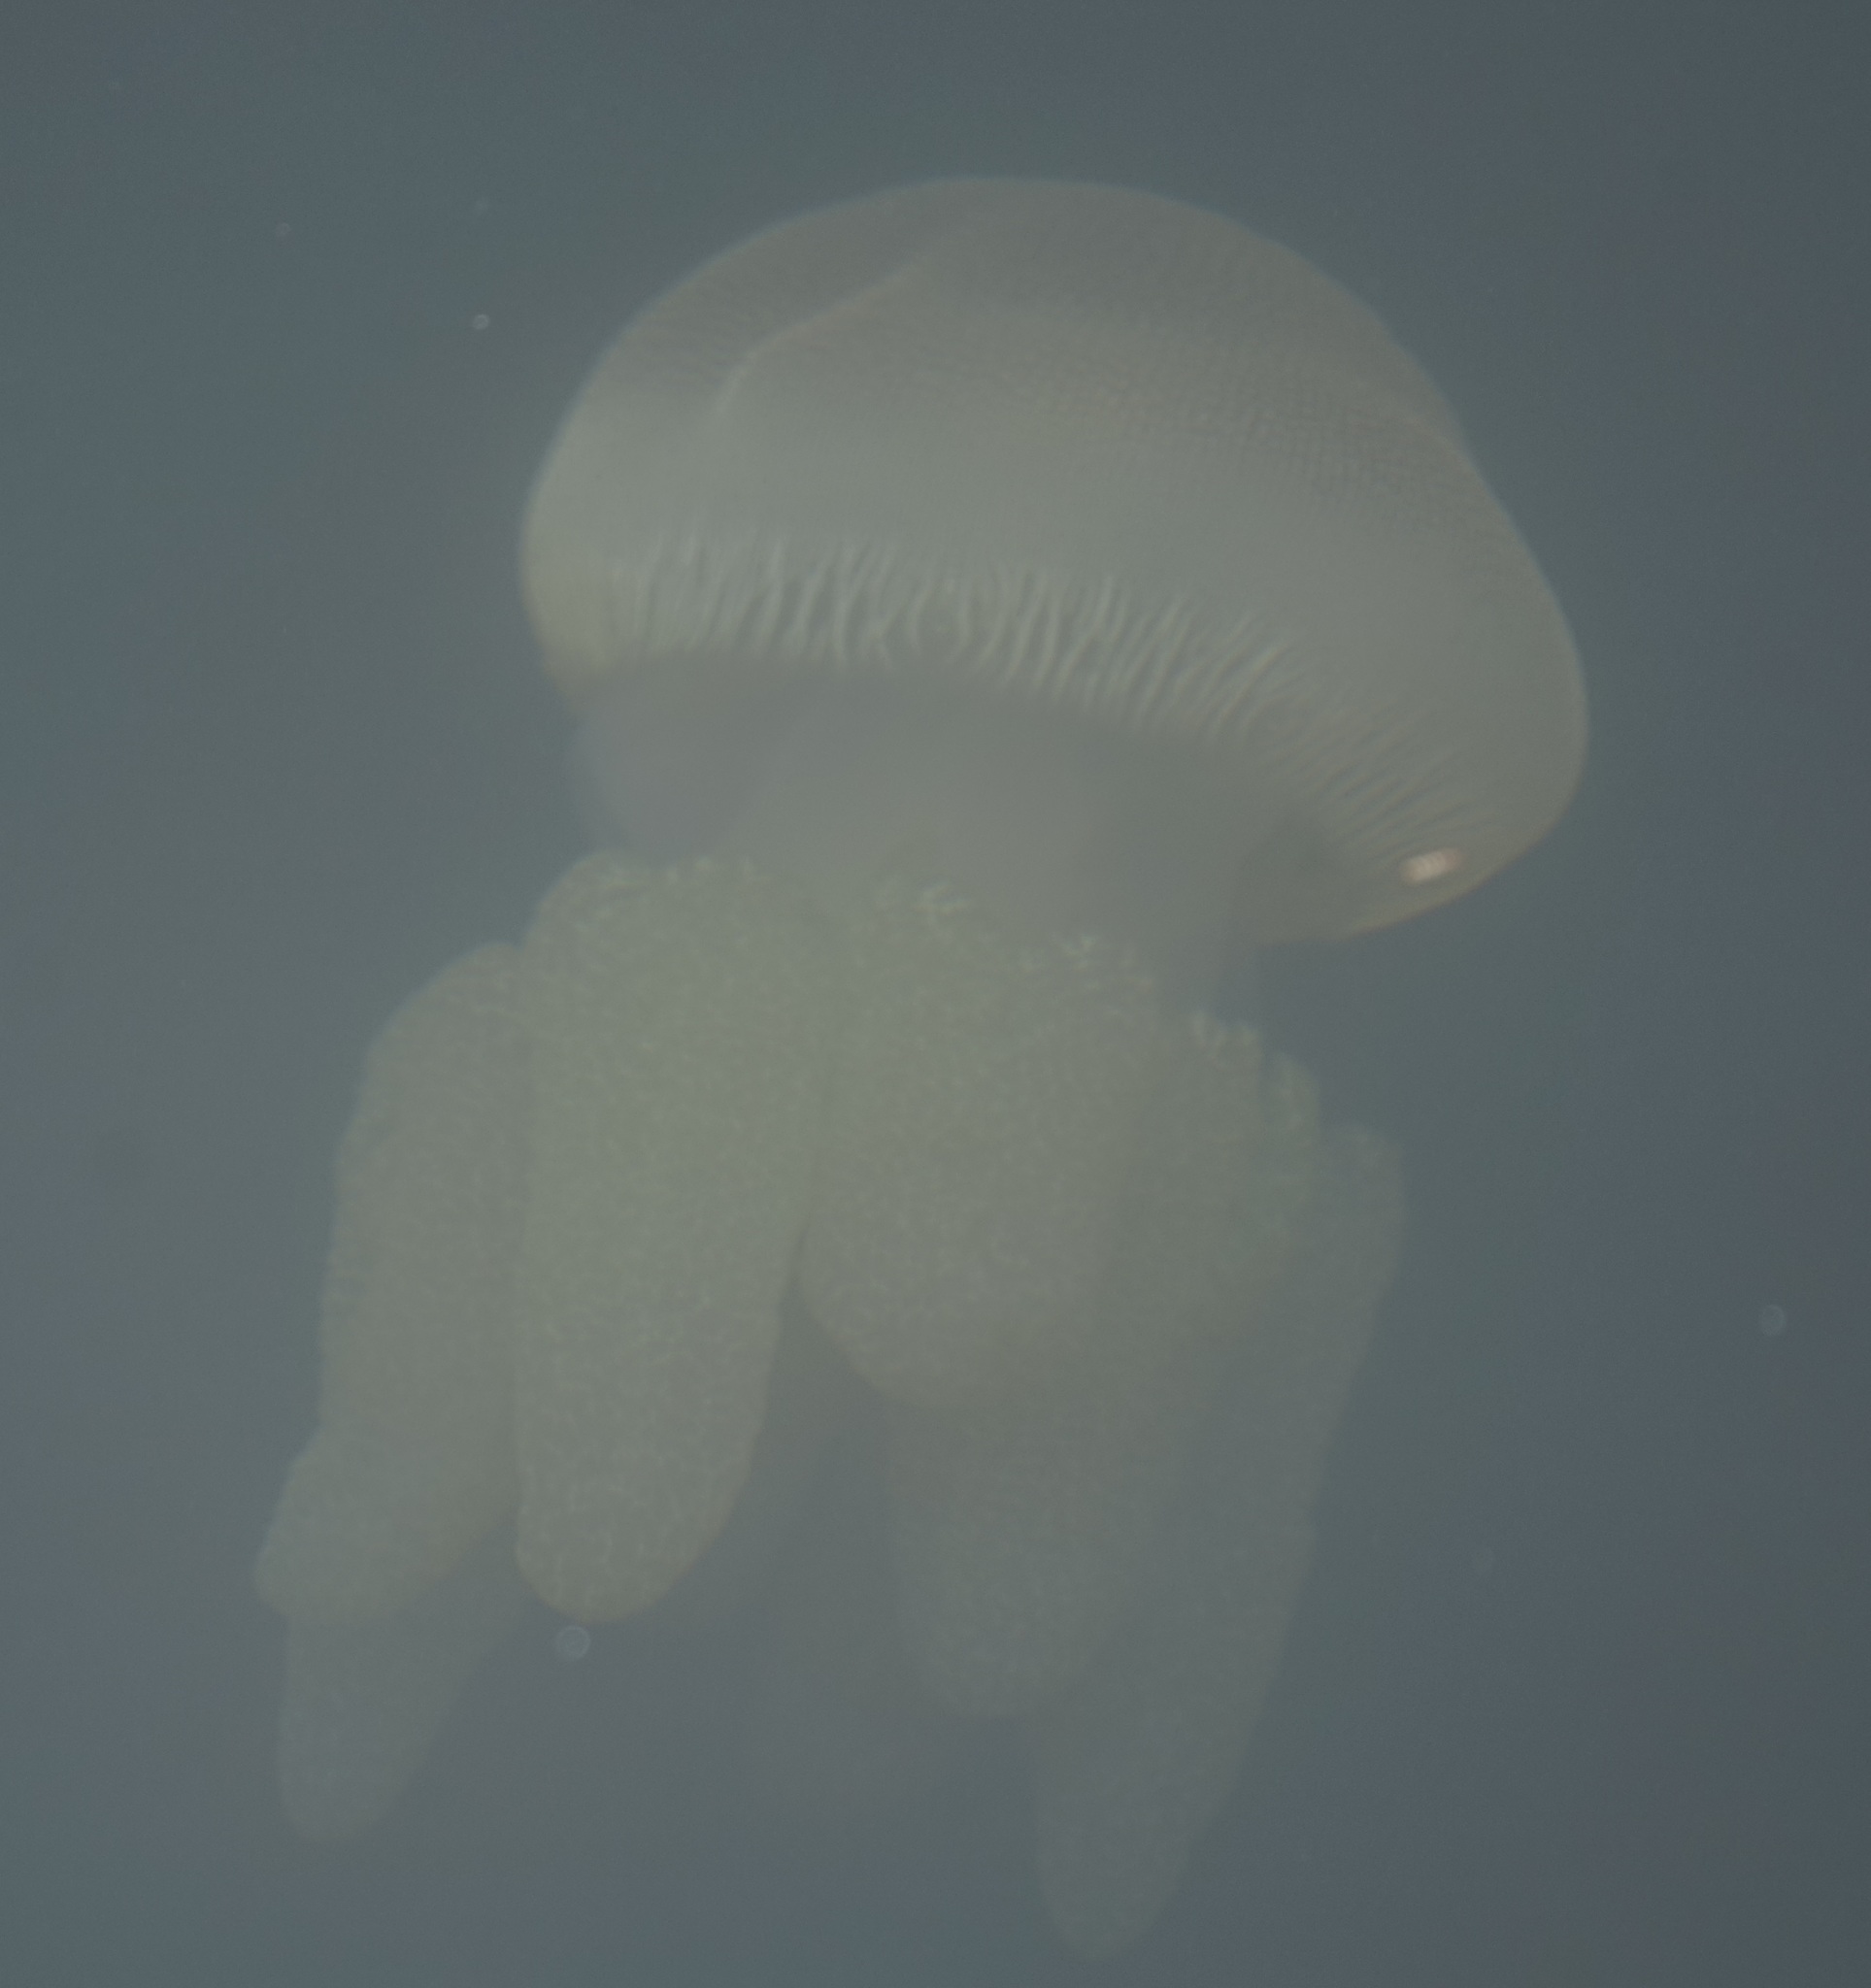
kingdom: Animalia
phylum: Cnidaria
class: Scyphozoa
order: Rhizostomeae
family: Catostylidae
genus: Catostylus
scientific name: Catostylus mosaicus
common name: Blue blubber
